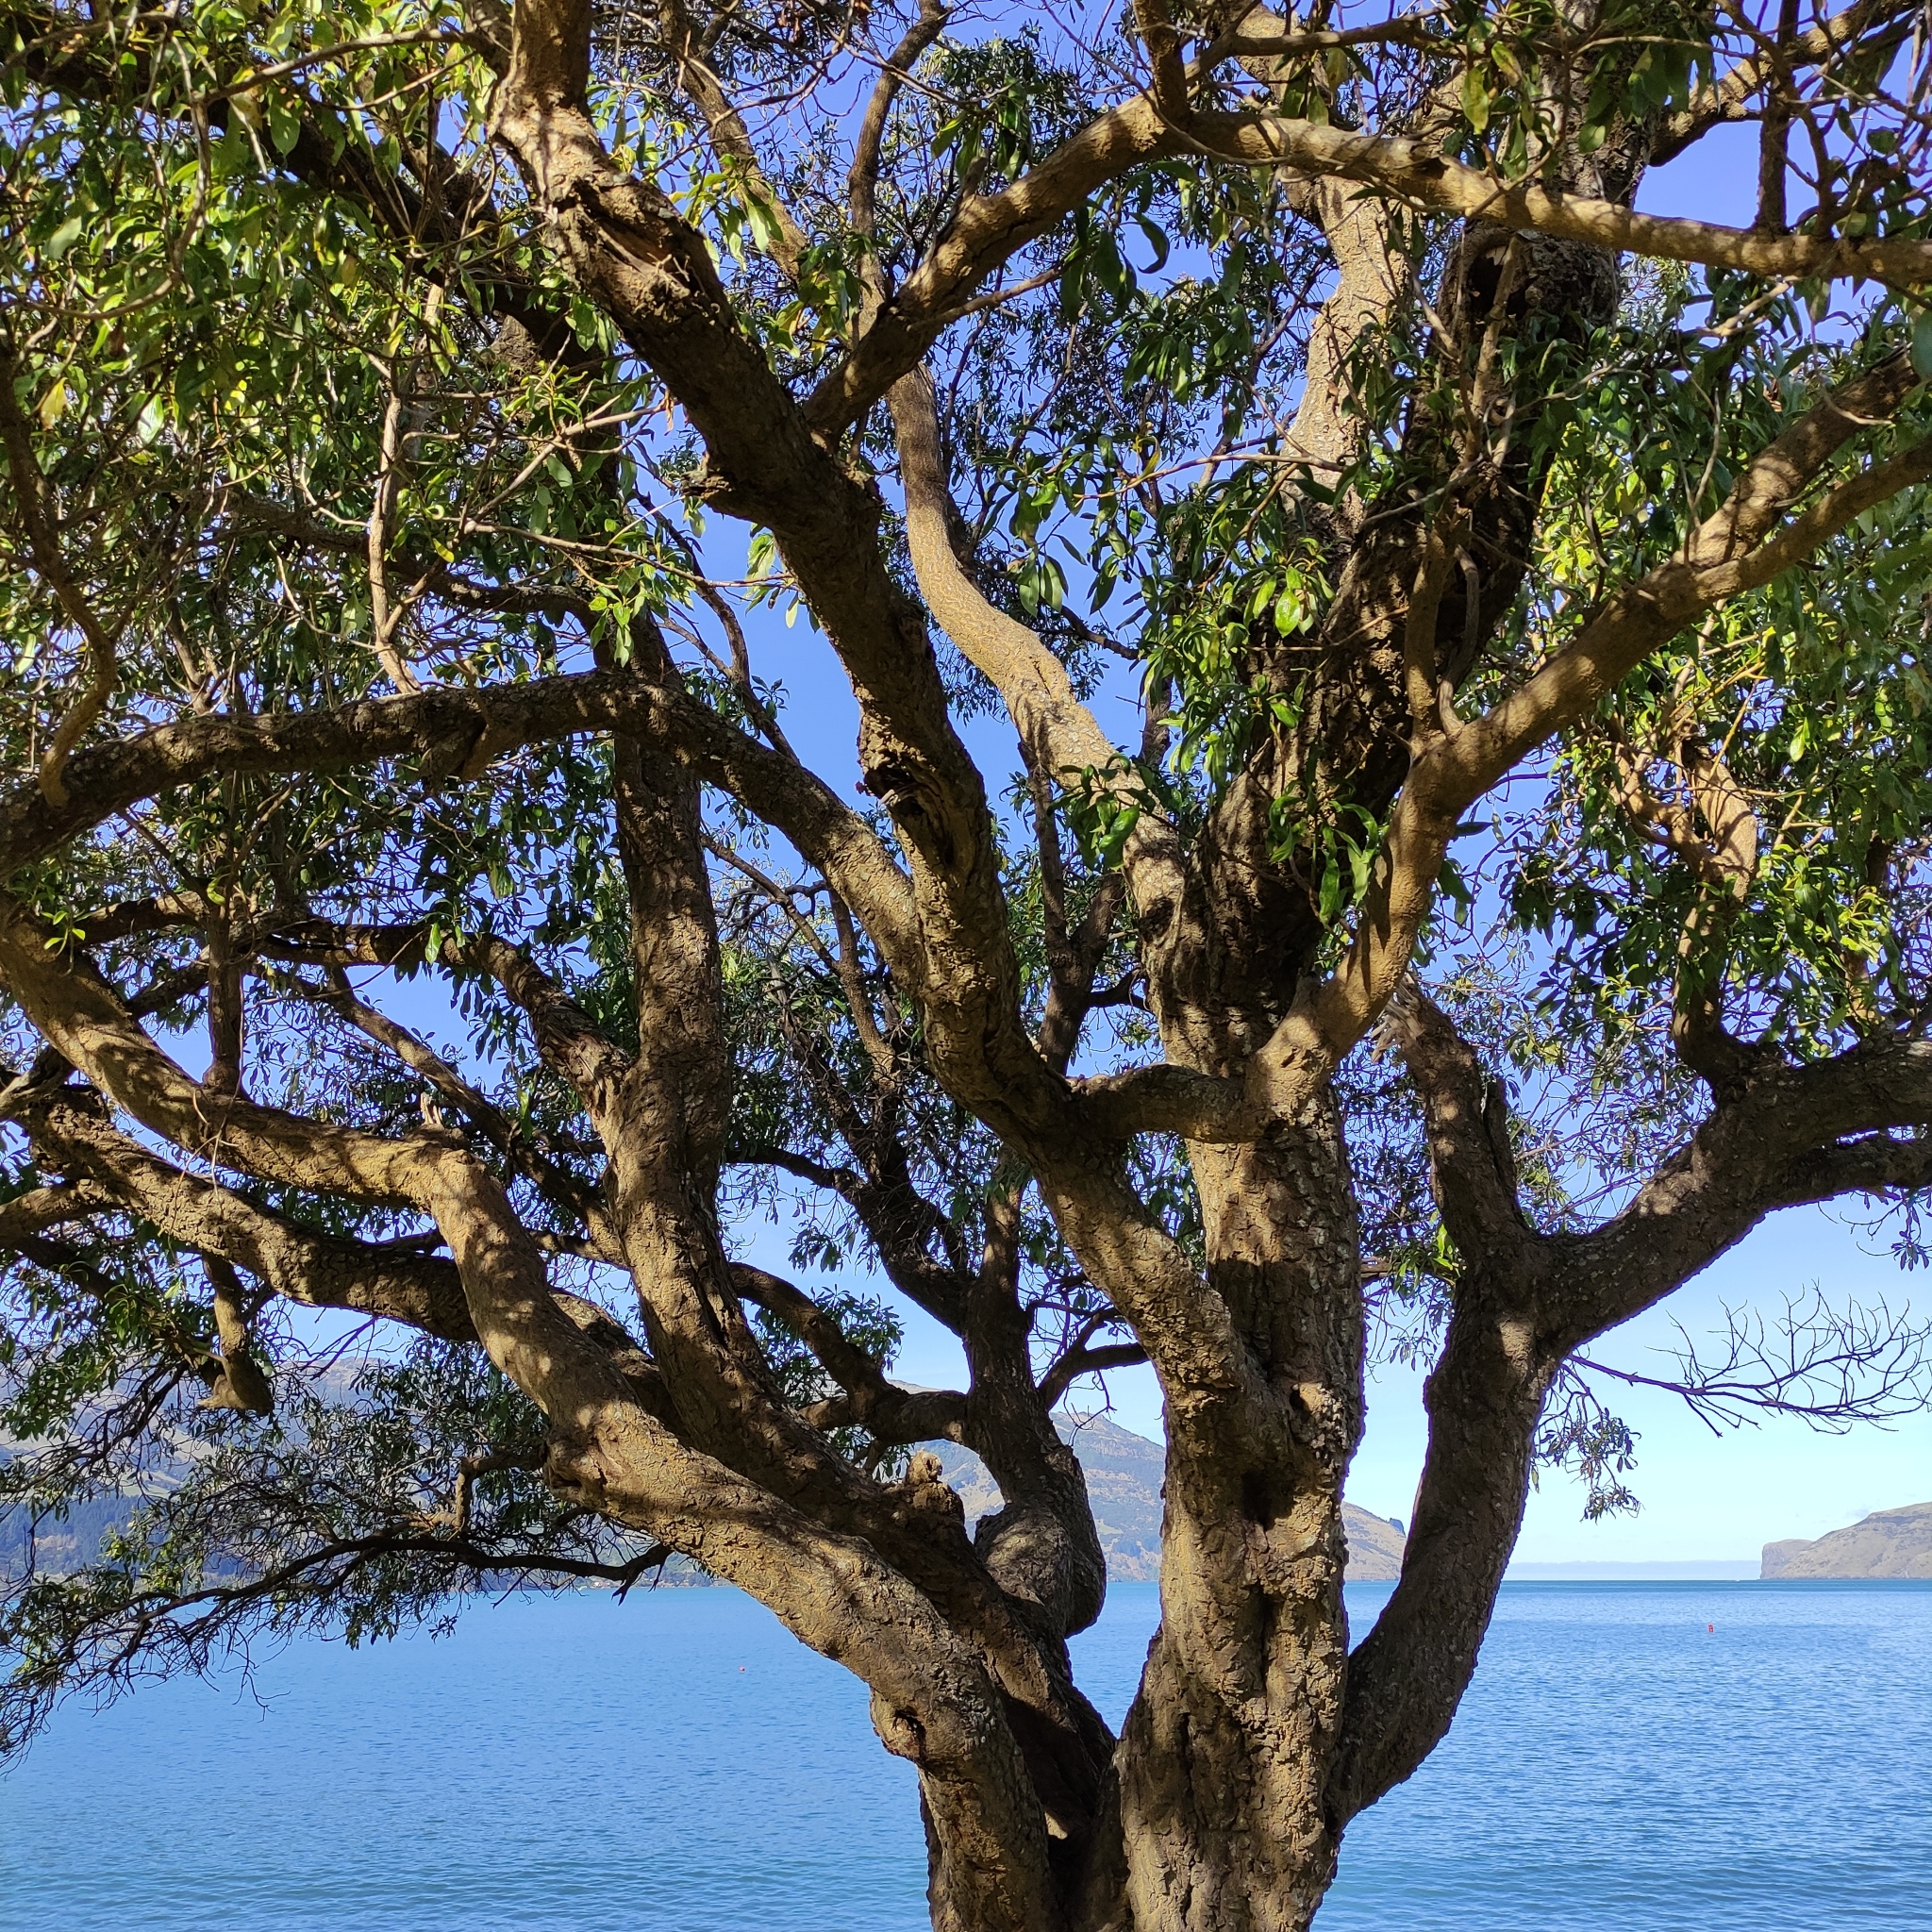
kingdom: Plantae
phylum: Tracheophyta
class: Magnoliopsida
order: Lamiales
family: Scrophulariaceae
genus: Myoporum
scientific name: Myoporum laetum
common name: Ngaio tree
